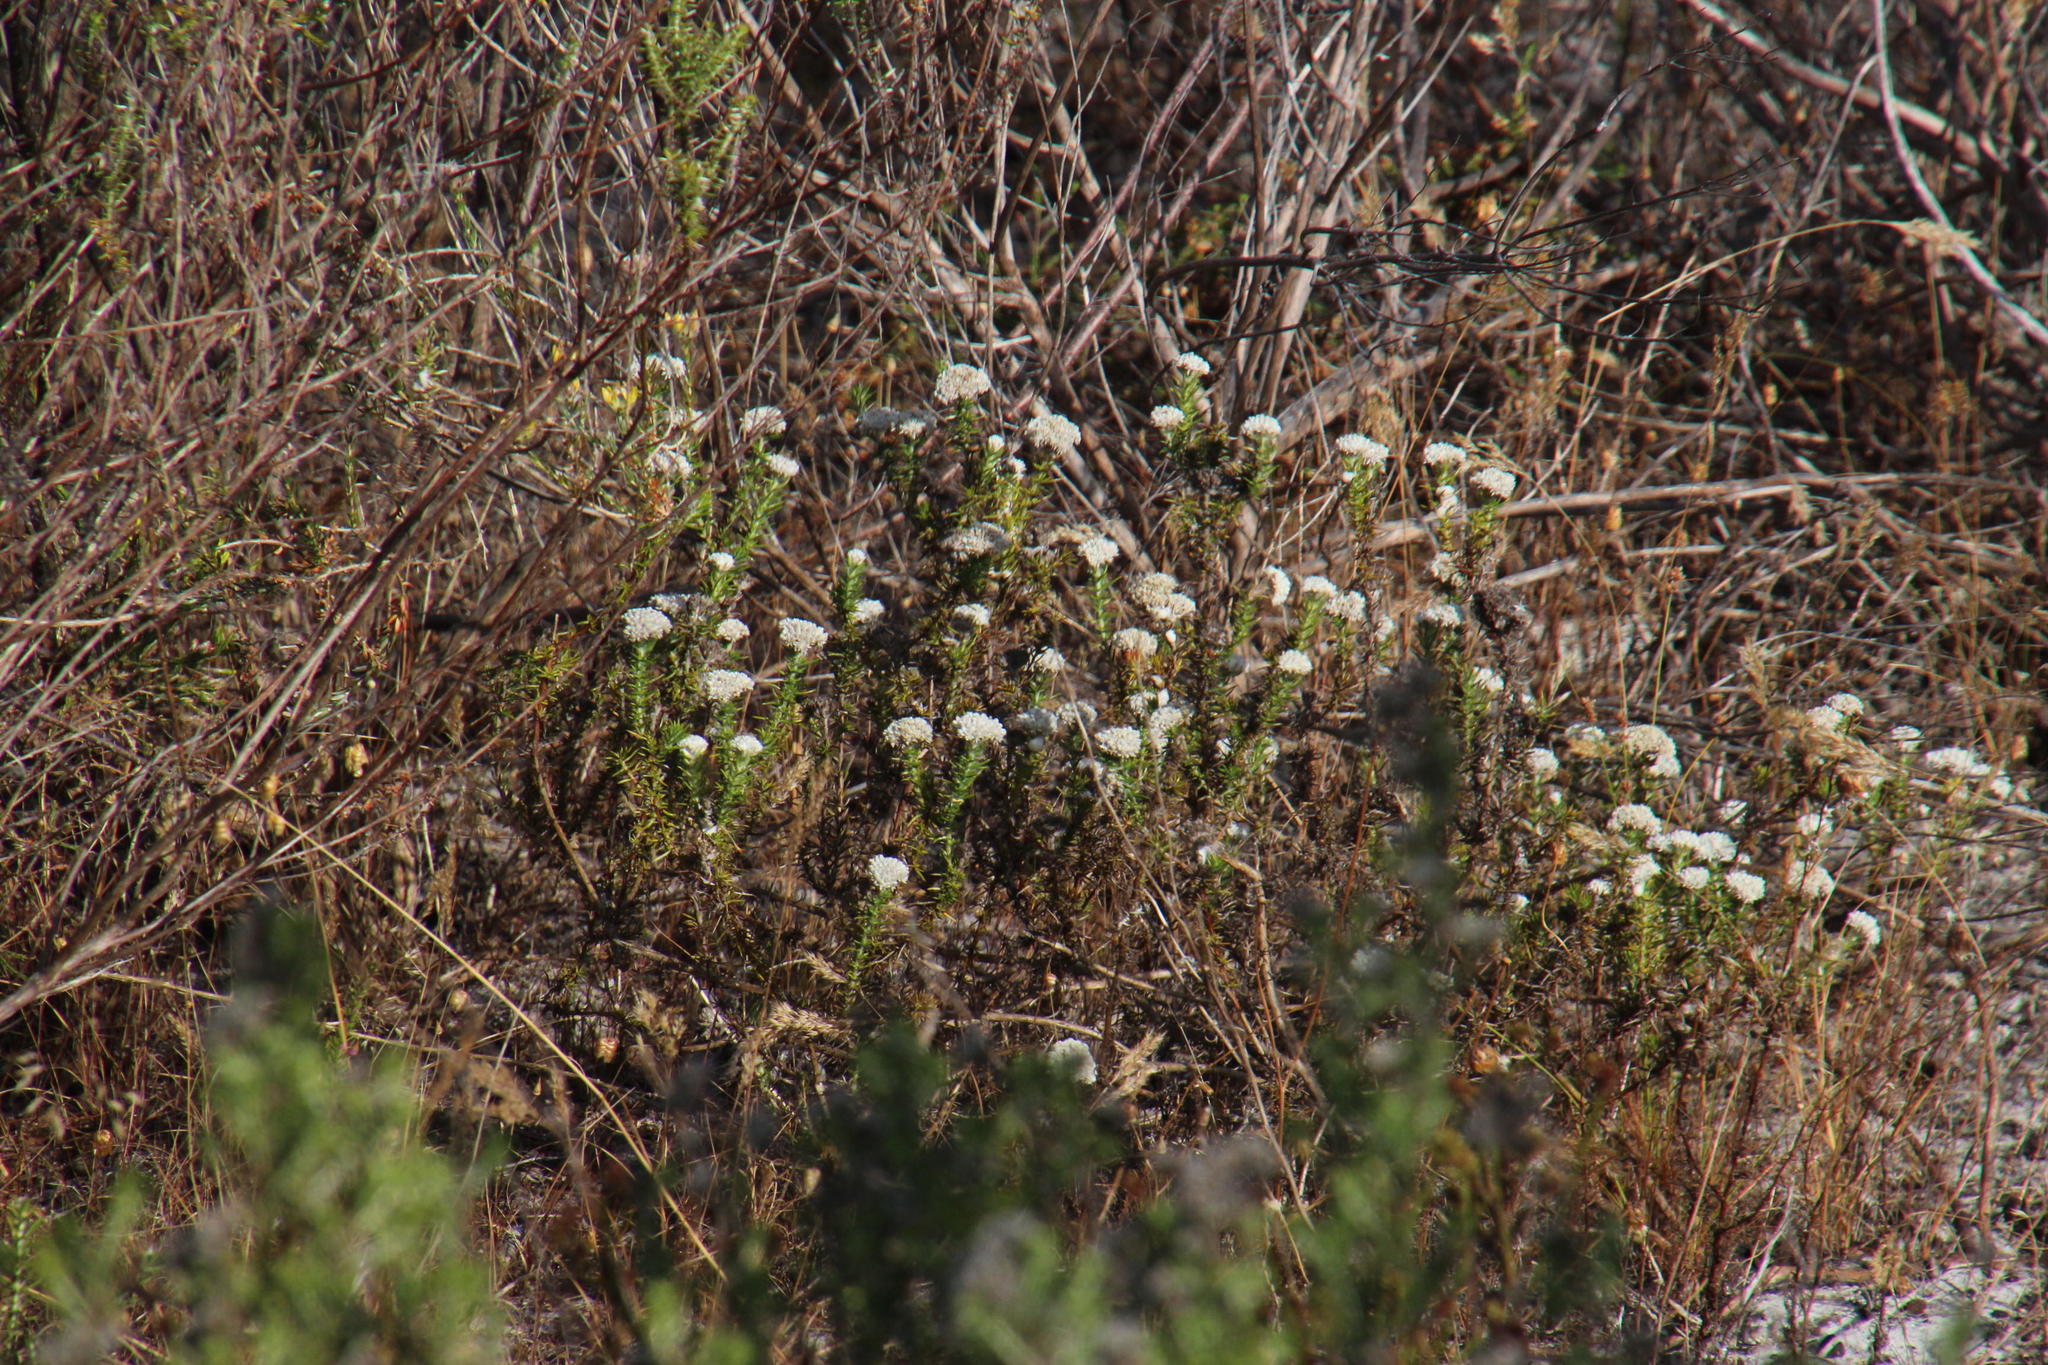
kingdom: Plantae
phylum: Tracheophyta
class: Magnoliopsida
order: Asterales
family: Asteraceae
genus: Metalasia
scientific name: Metalasia pulchella
